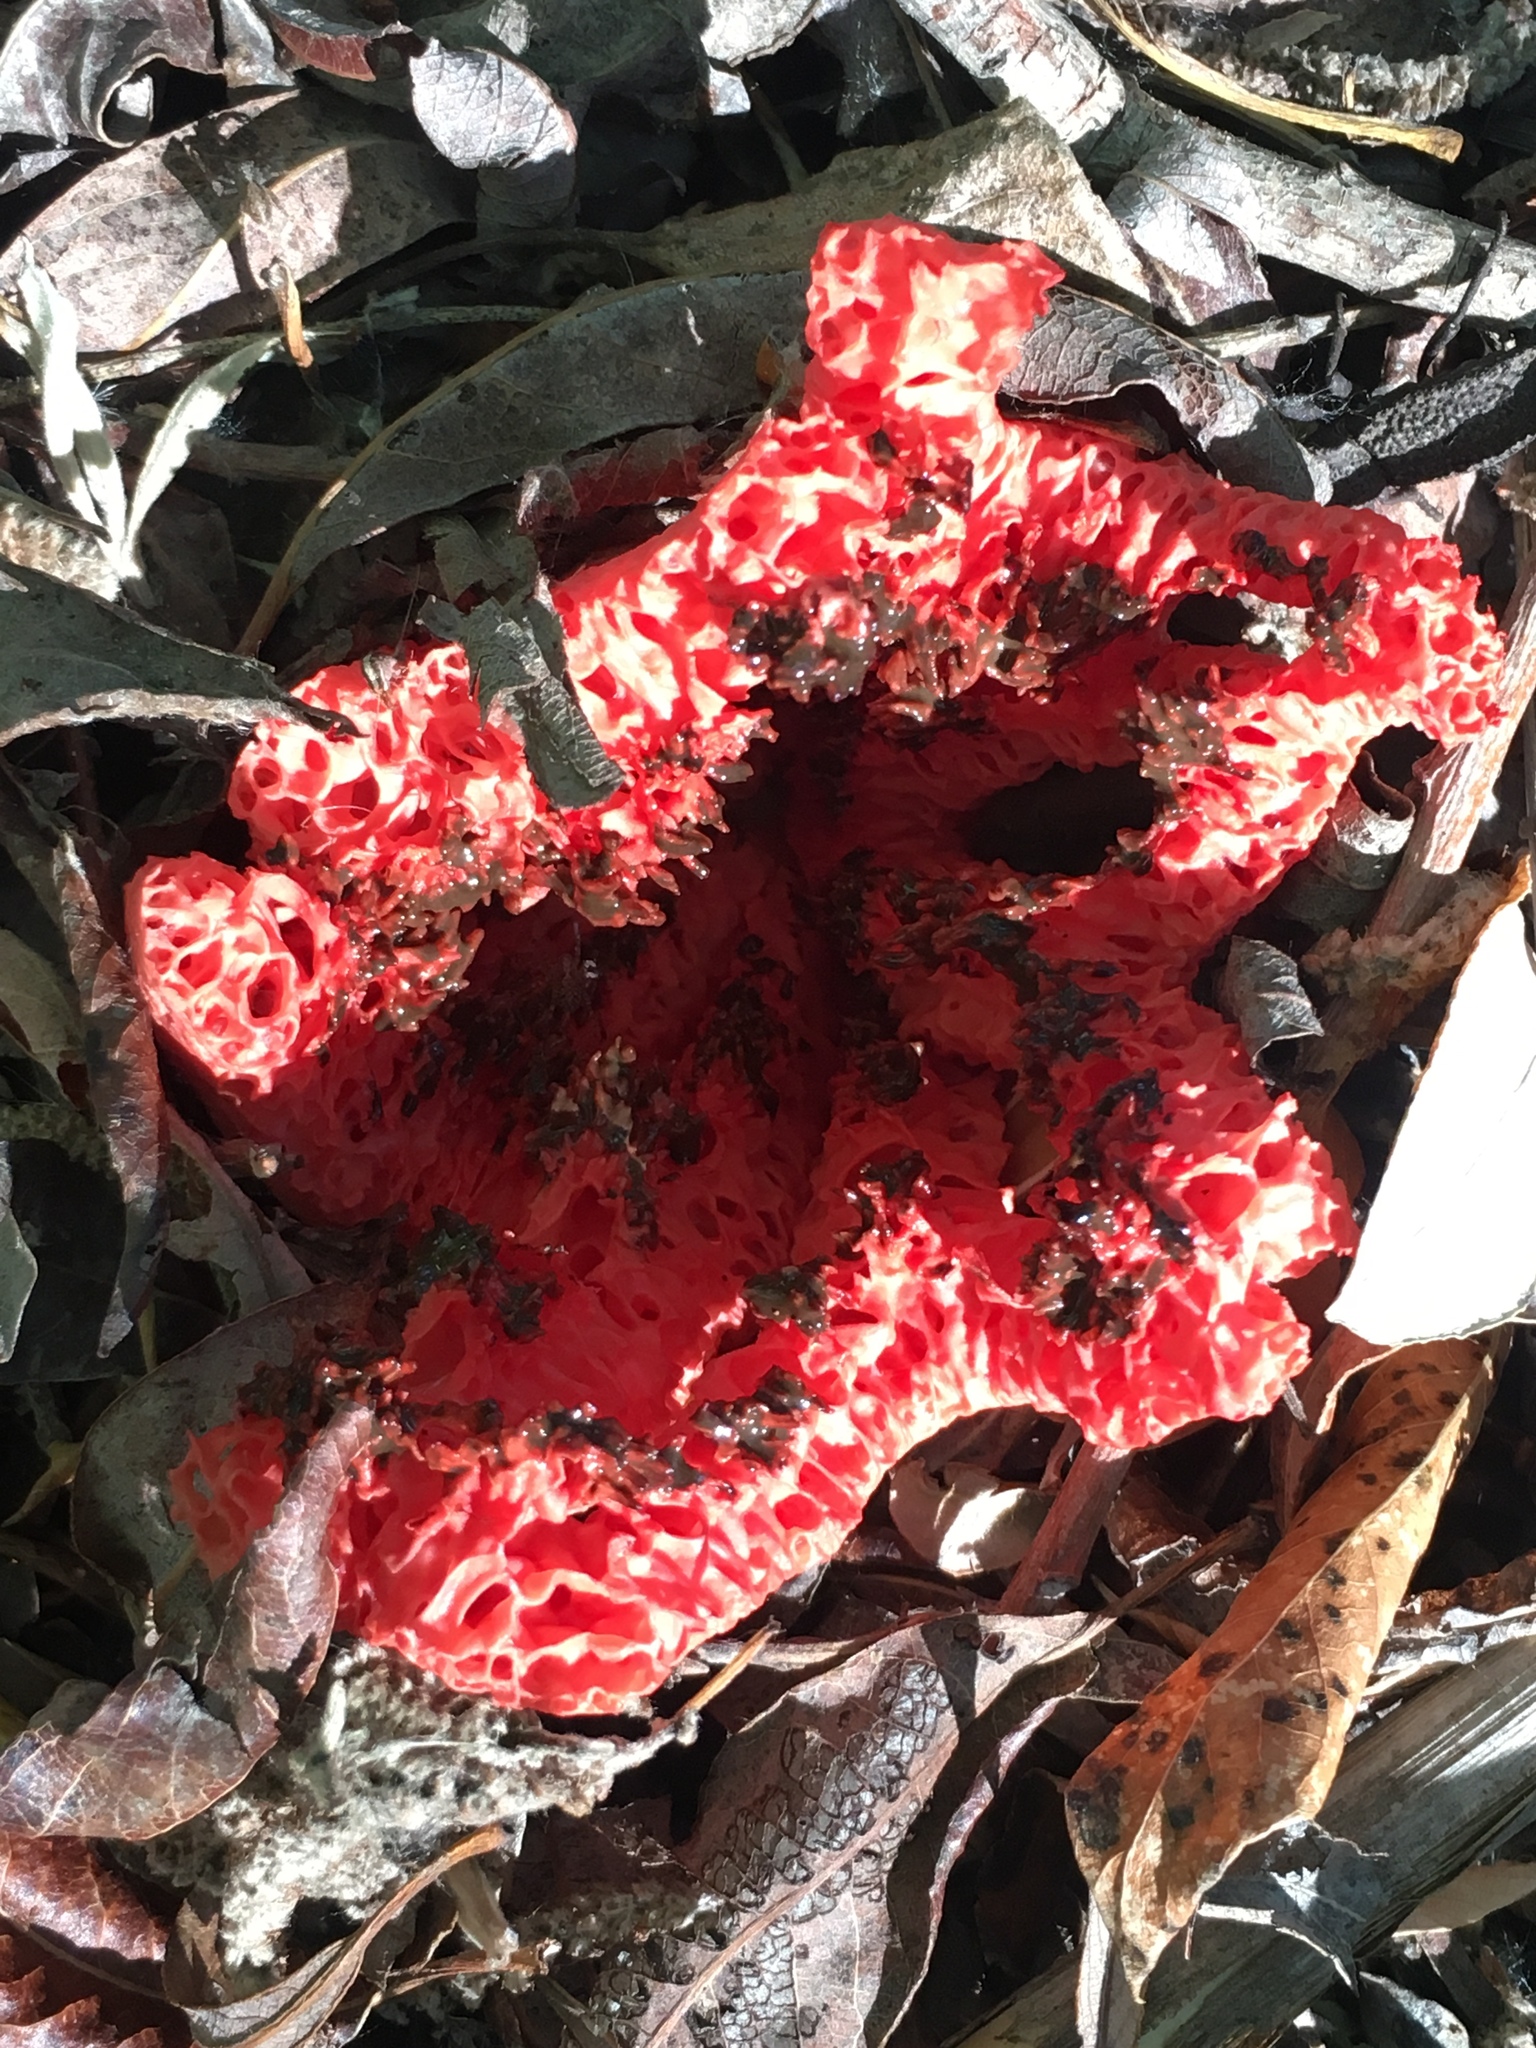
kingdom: Fungi
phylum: Basidiomycota
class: Agaricomycetes
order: Phallales
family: Phallaceae
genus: Clathrus
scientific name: Clathrus ruber
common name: Red cage
